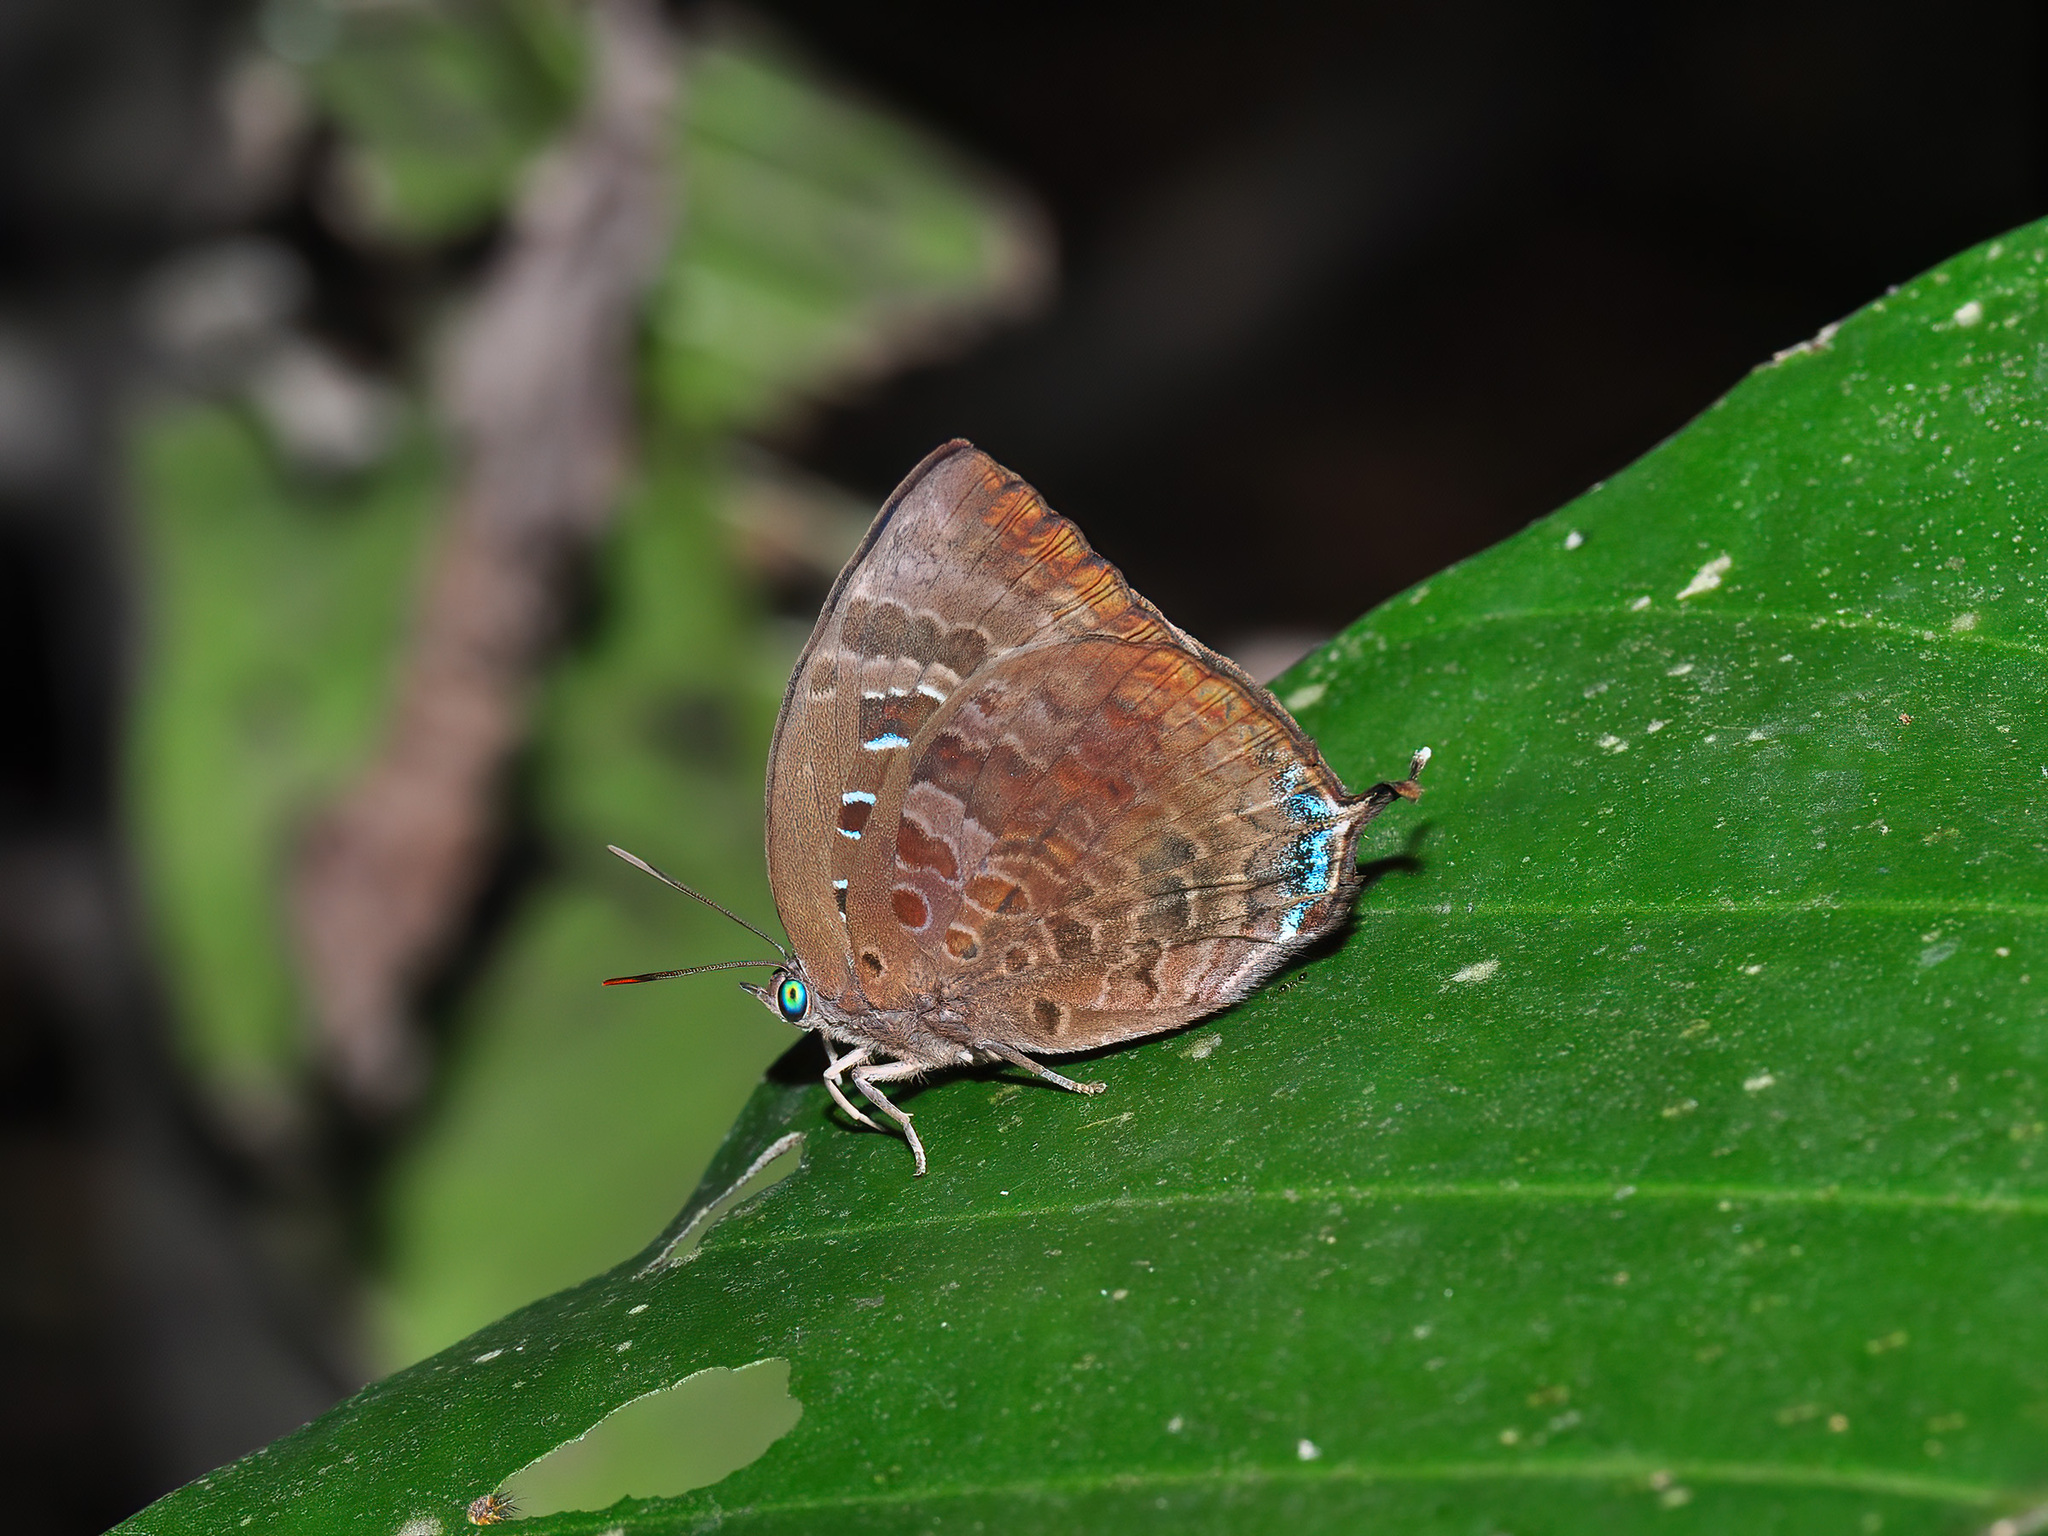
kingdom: Animalia
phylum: Arthropoda
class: Insecta
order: Lepidoptera
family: Lycaenidae
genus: Arhopala
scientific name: Arhopala centaurus
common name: Dull oak-blue
